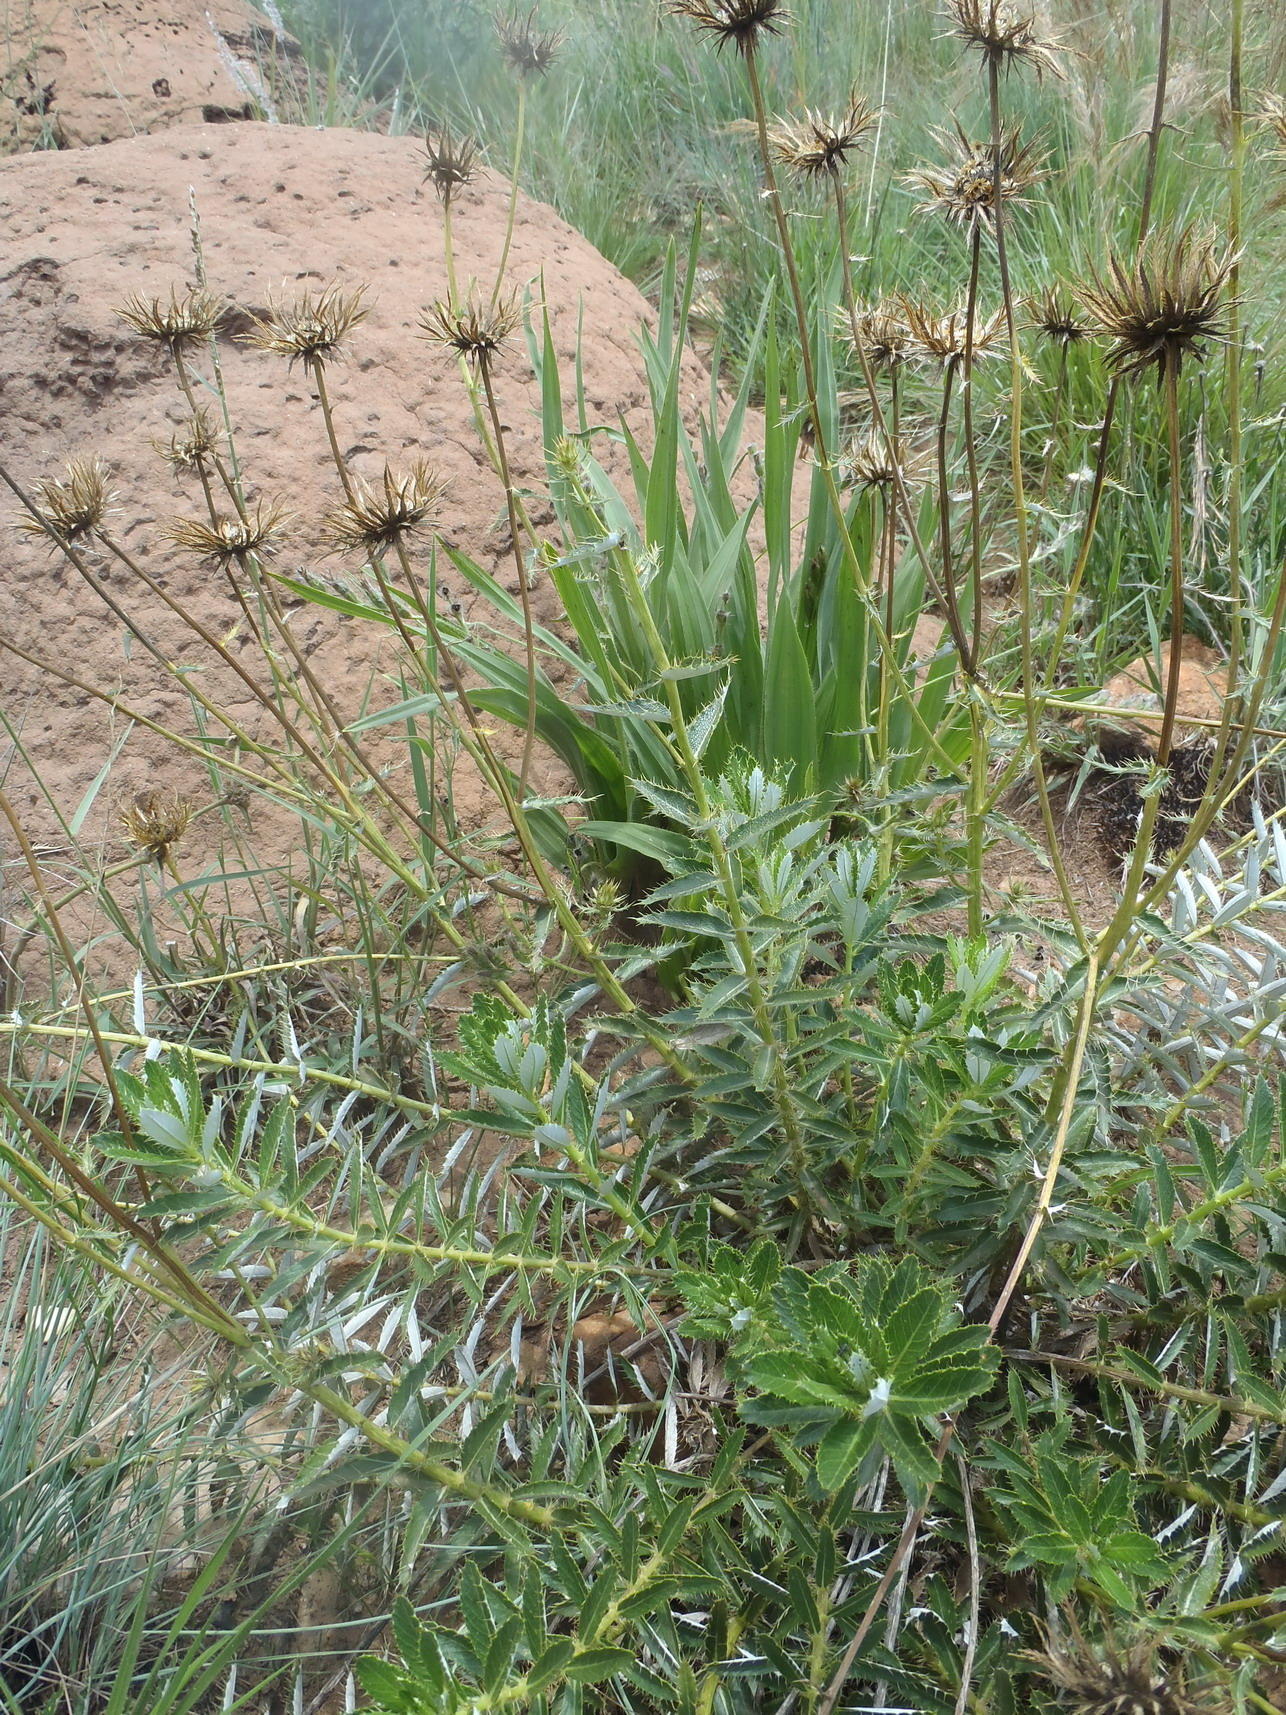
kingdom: Plantae
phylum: Tracheophyta
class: Magnoliopsida
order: Asterales
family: Asteraceae
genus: Berkheya
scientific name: Berkheya seminivea
